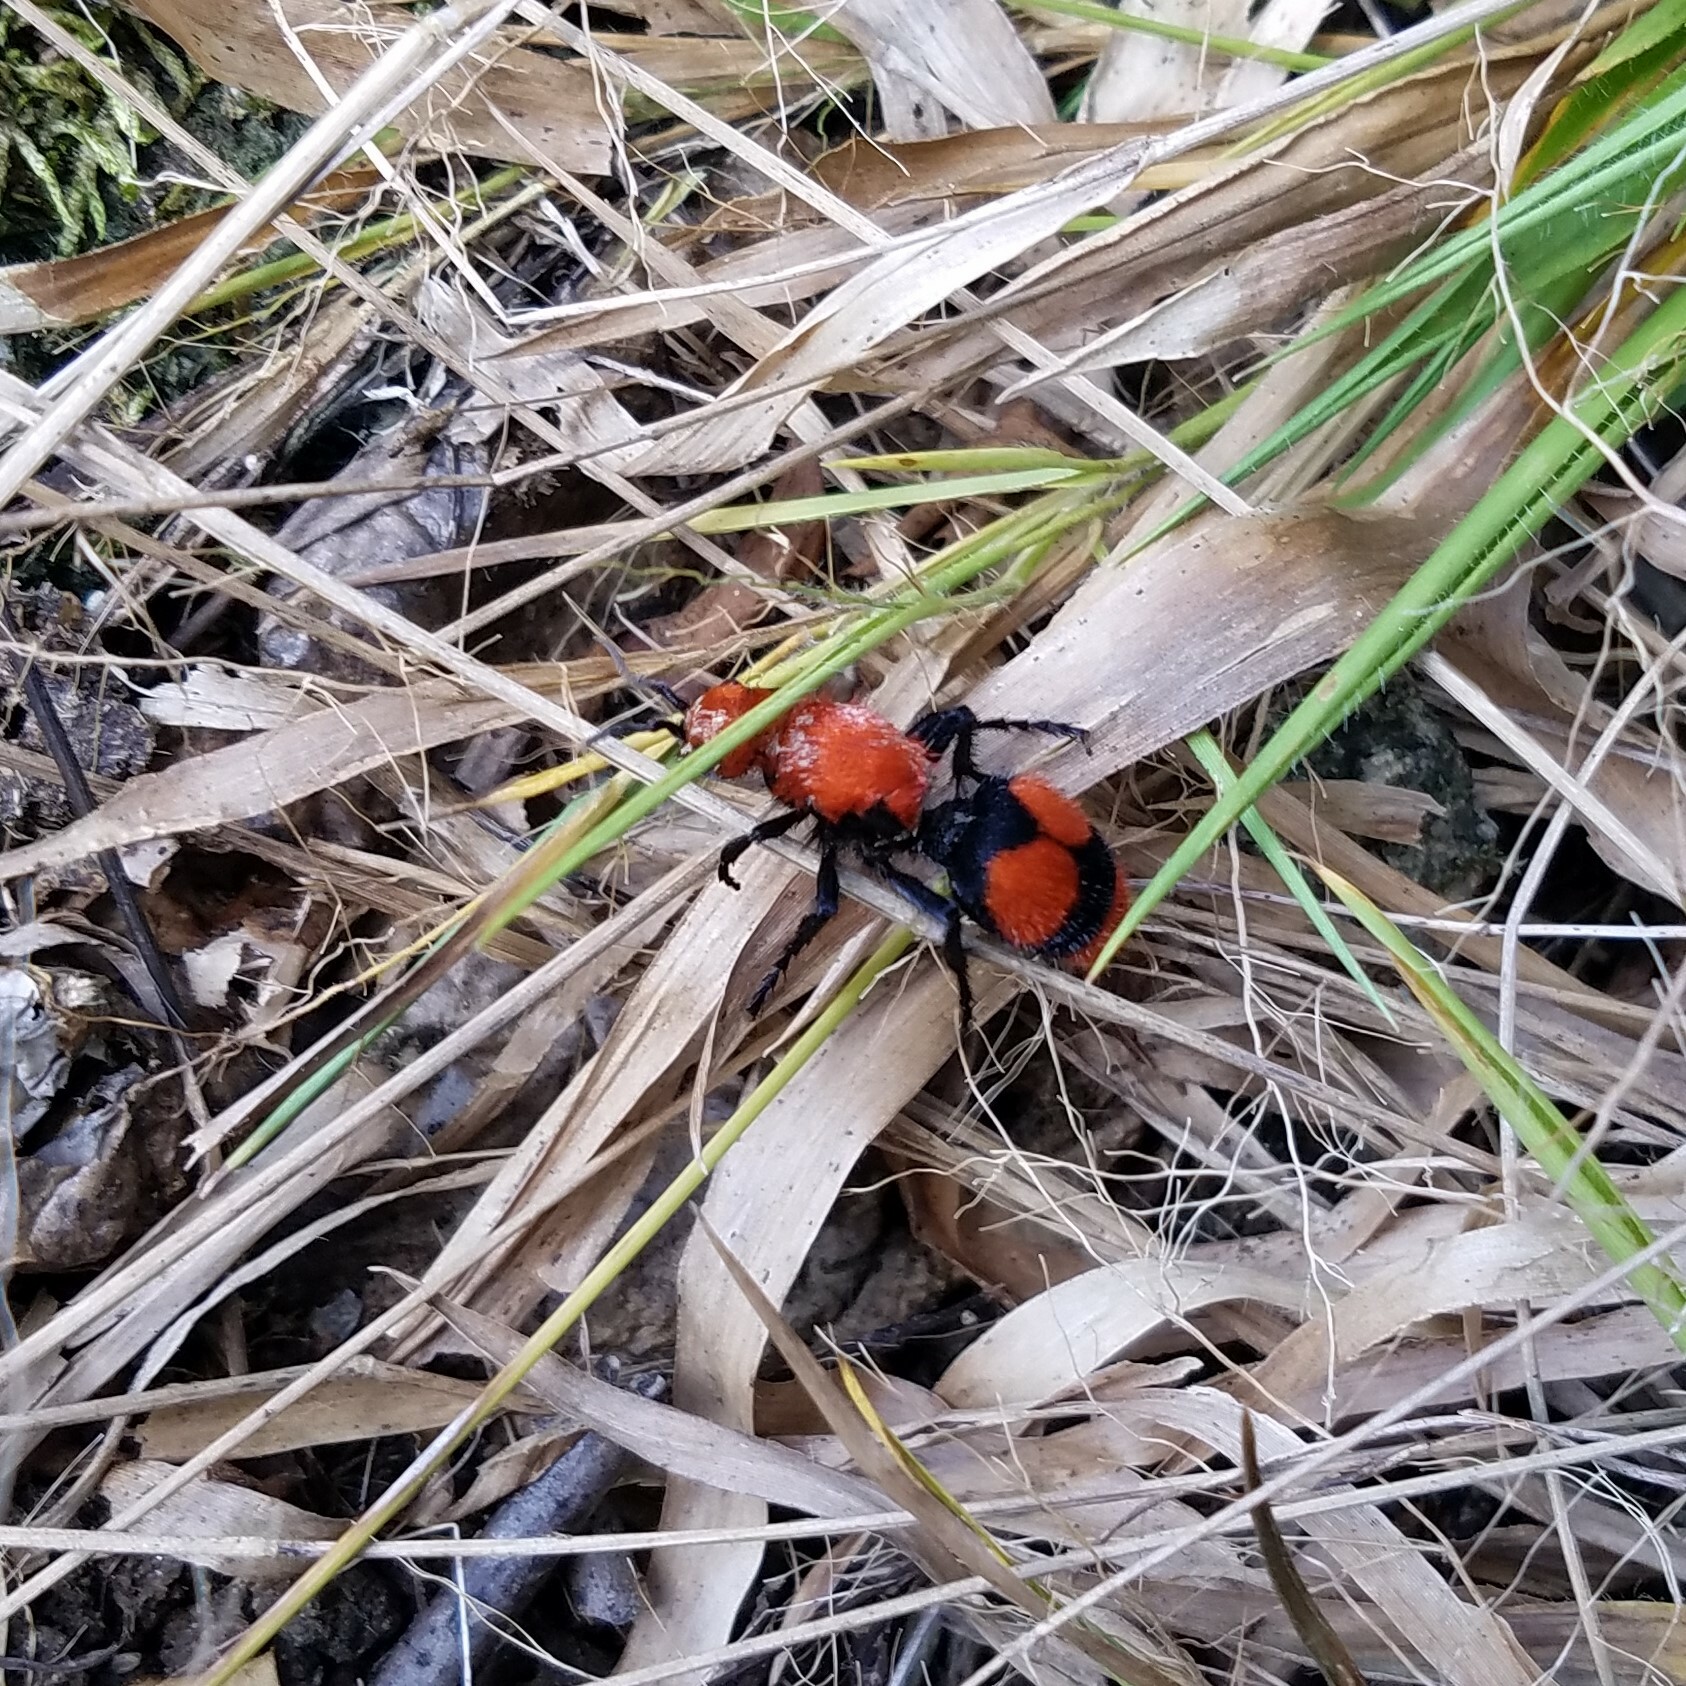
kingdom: Animalia
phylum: Arthropoda
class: Insecta
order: Hymenoptera
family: Mutillidae
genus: Dasymutilla
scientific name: Dasymutilla occidentalis
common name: Common eastern velvet ant
